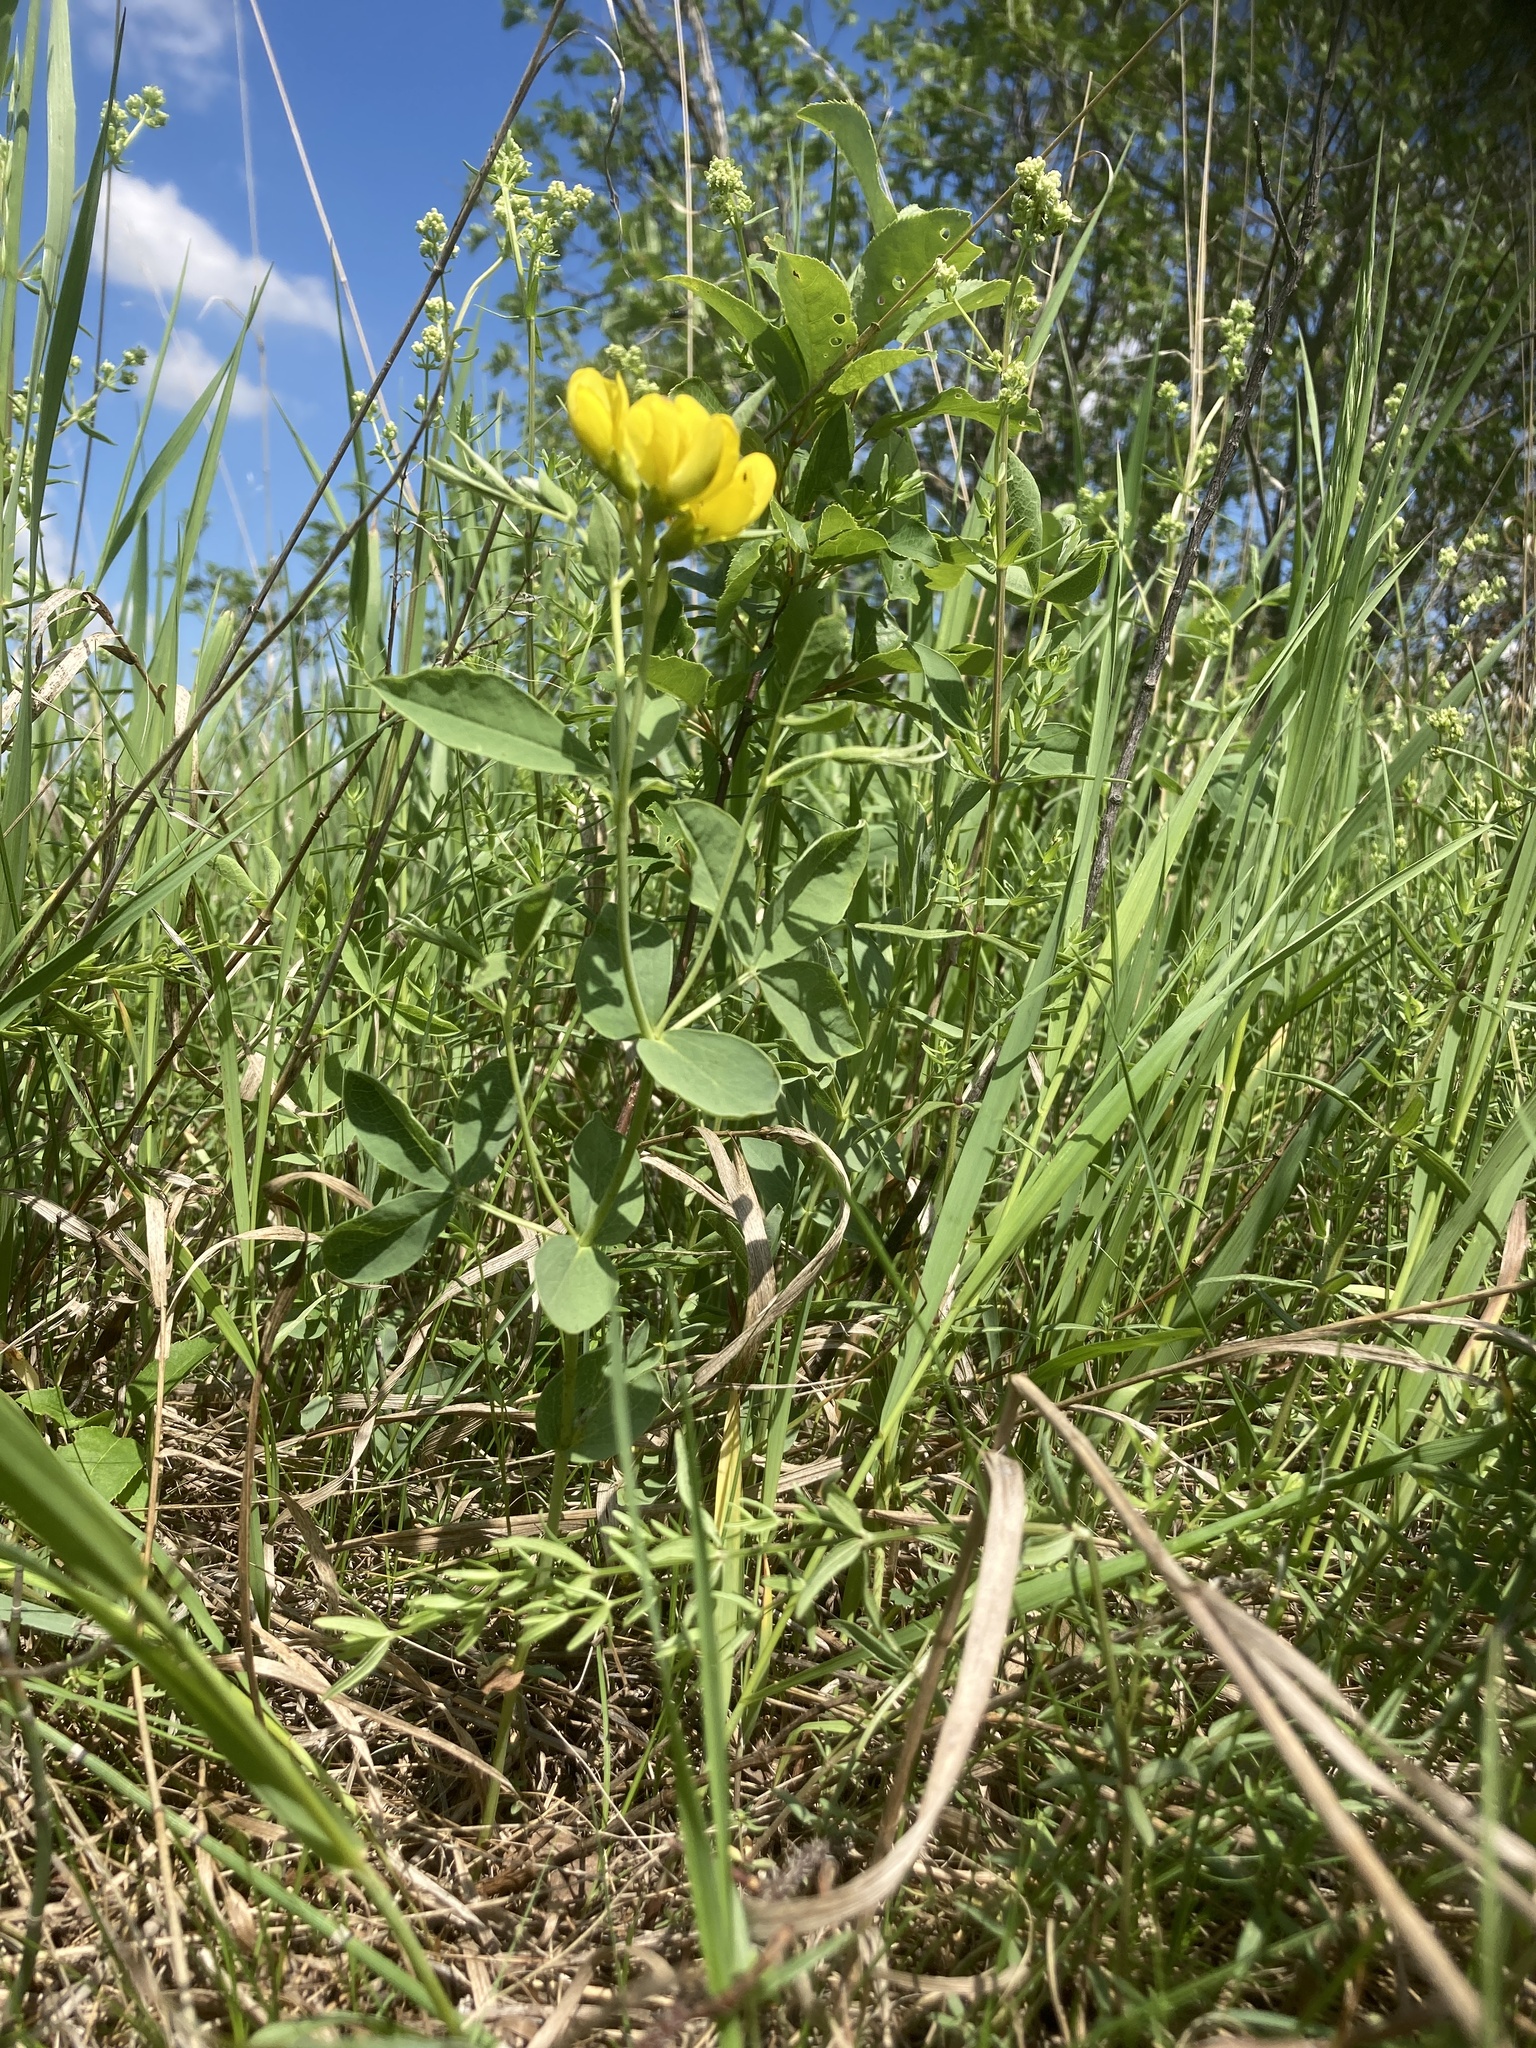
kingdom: Plantae
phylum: Tracheophyta
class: Magnoliopsida
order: Fabales
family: Fabaceae
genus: Thermopsis
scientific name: Thermopsis rhombifolia
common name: Circle-pod-pea
